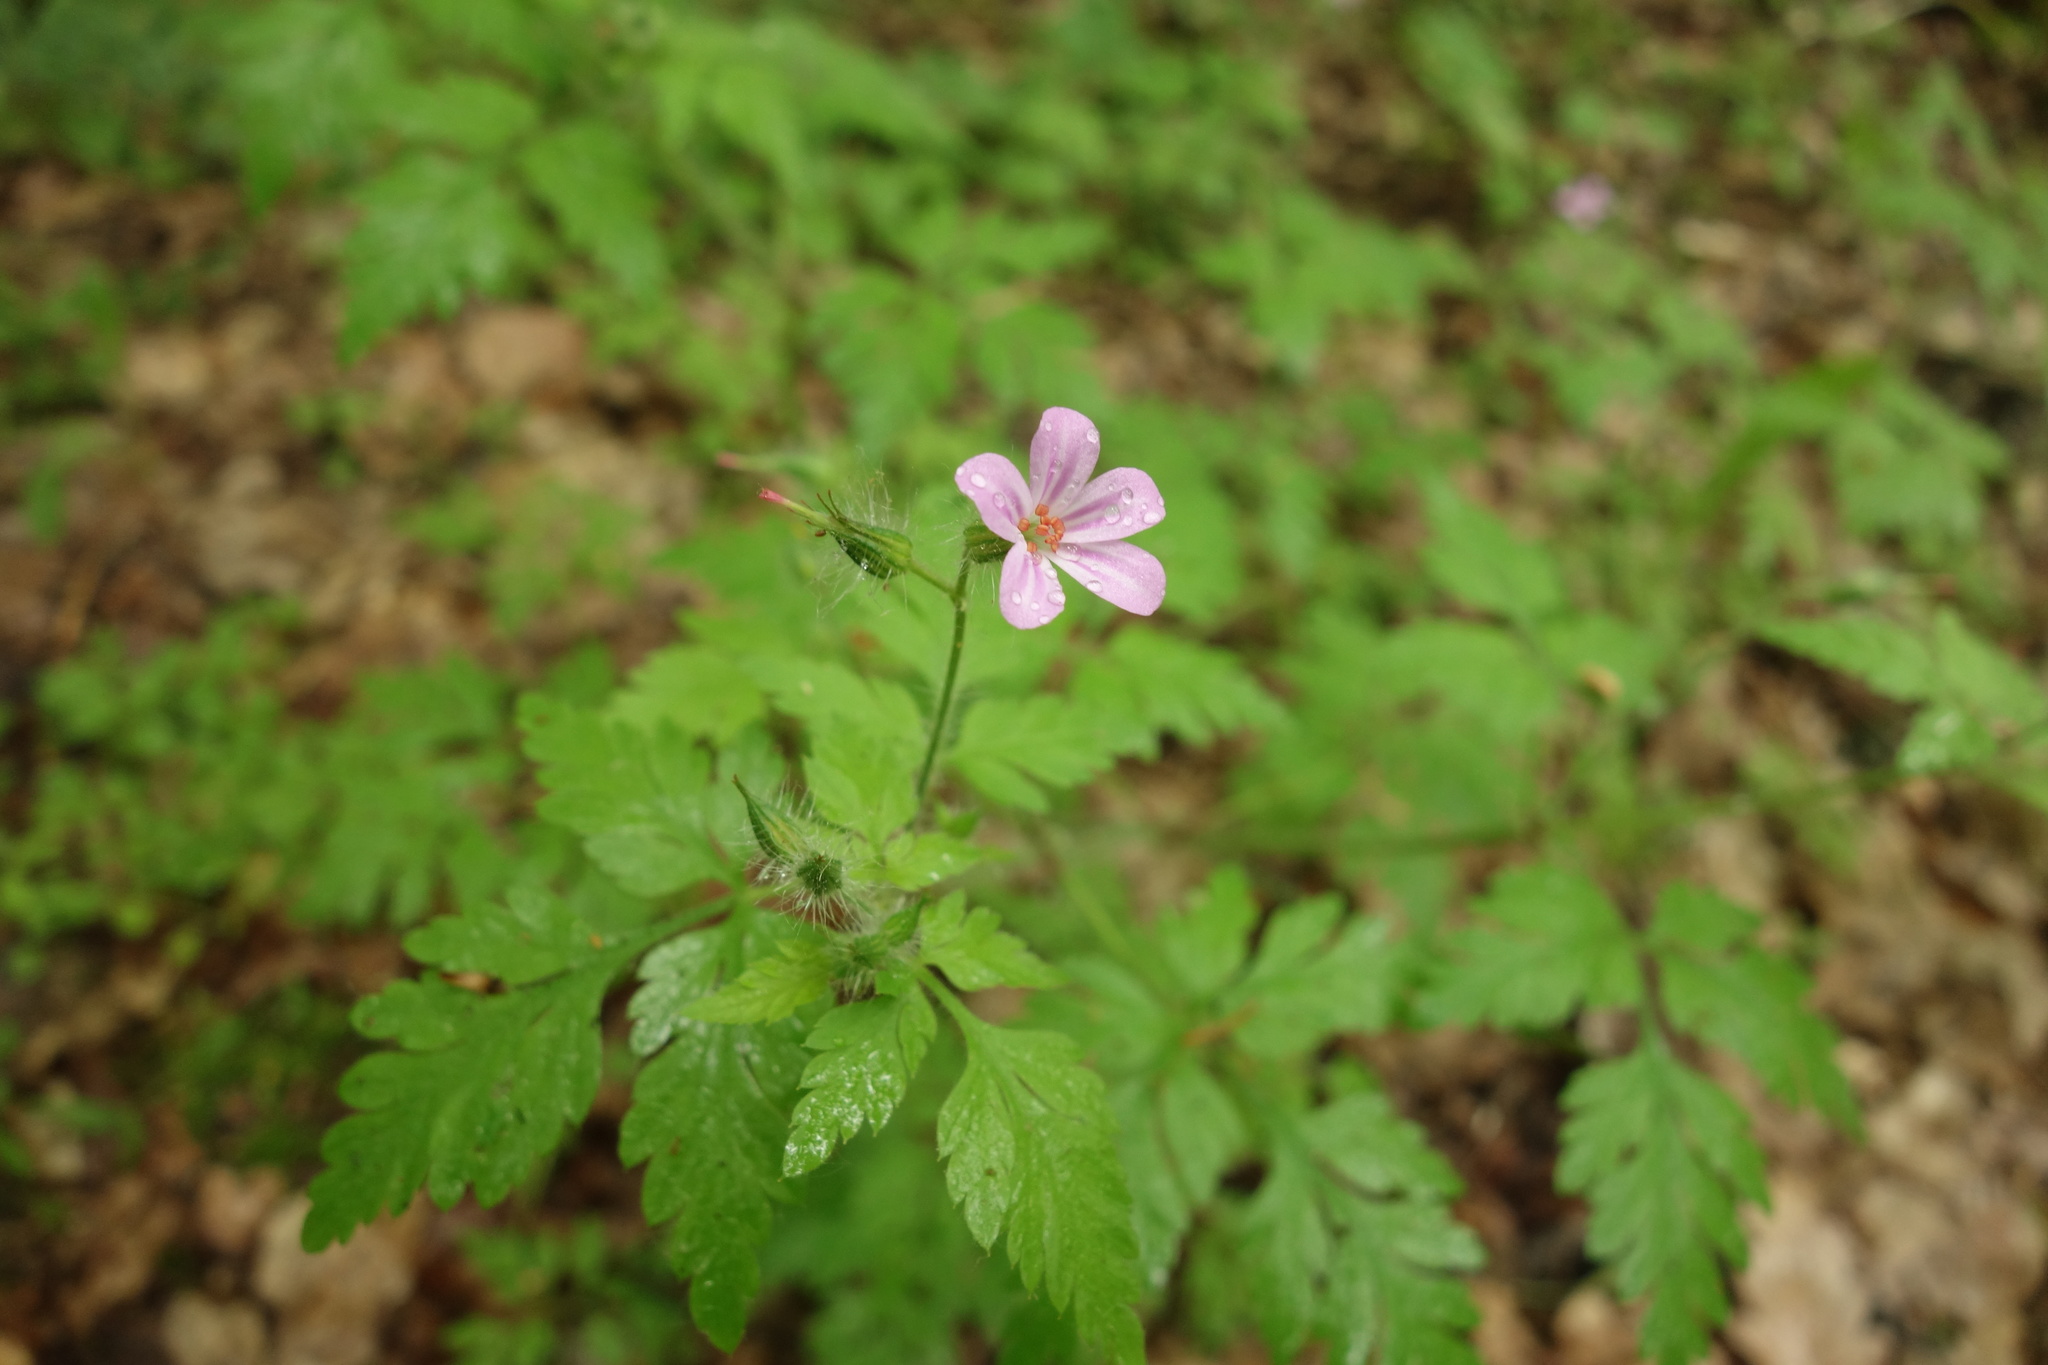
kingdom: Plantae
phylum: Tracheophyta
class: Magnoliopsida
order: Geraniales
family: Geraniaceae
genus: Geranium
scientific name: Geranium robertianum
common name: Herb-robert
